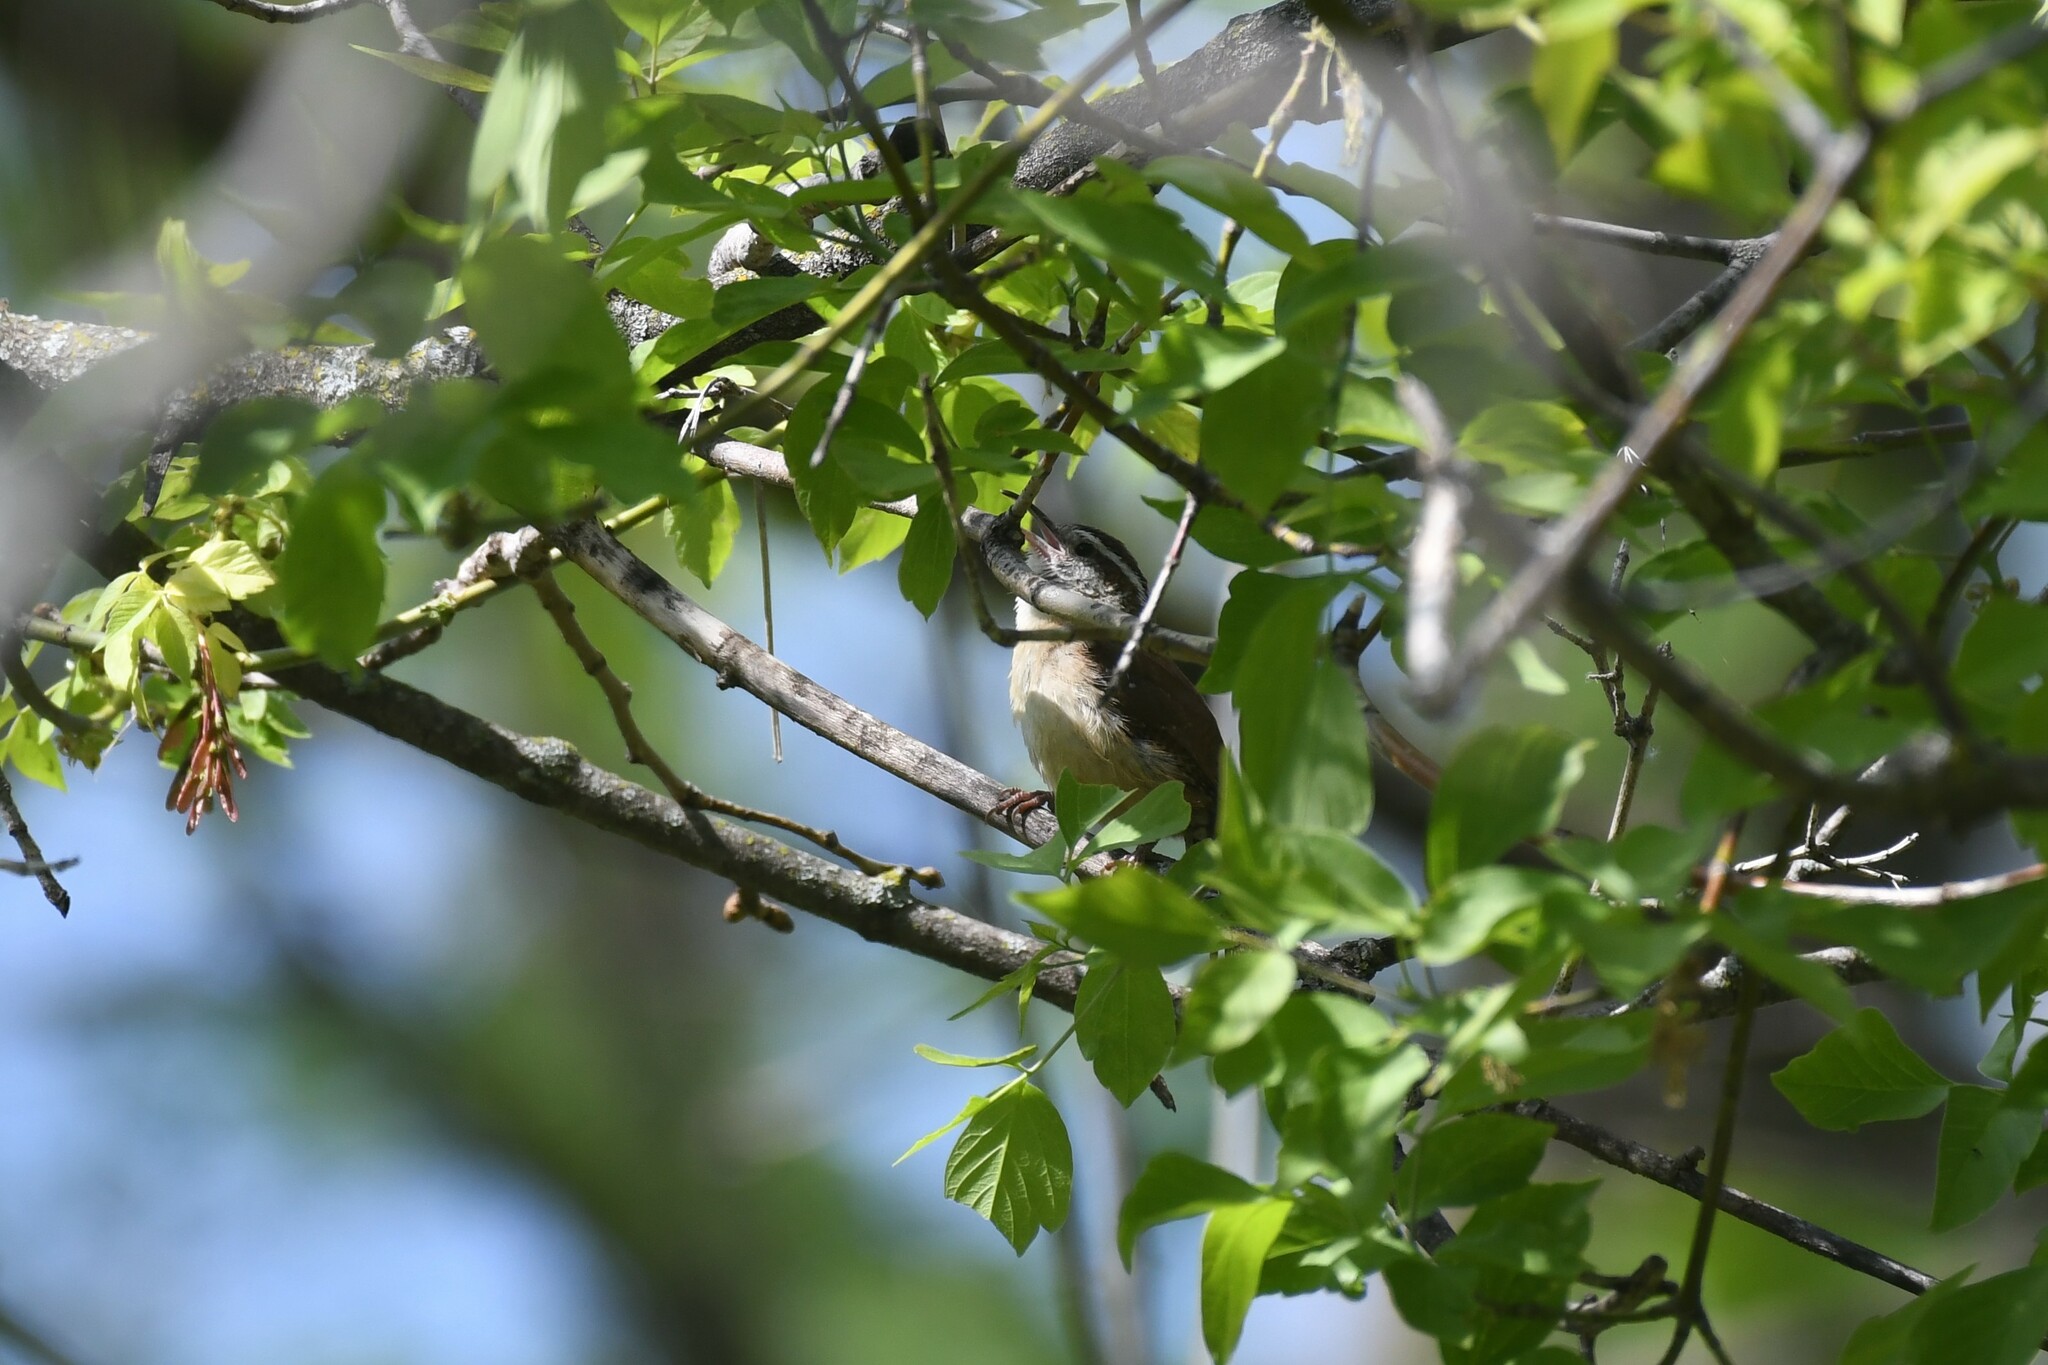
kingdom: Animalia
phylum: Chordata
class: Aves
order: Passeriformes
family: Troglodytidae
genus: Thryothorus
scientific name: Thryothorus ludovicianus
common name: Carolina wren
